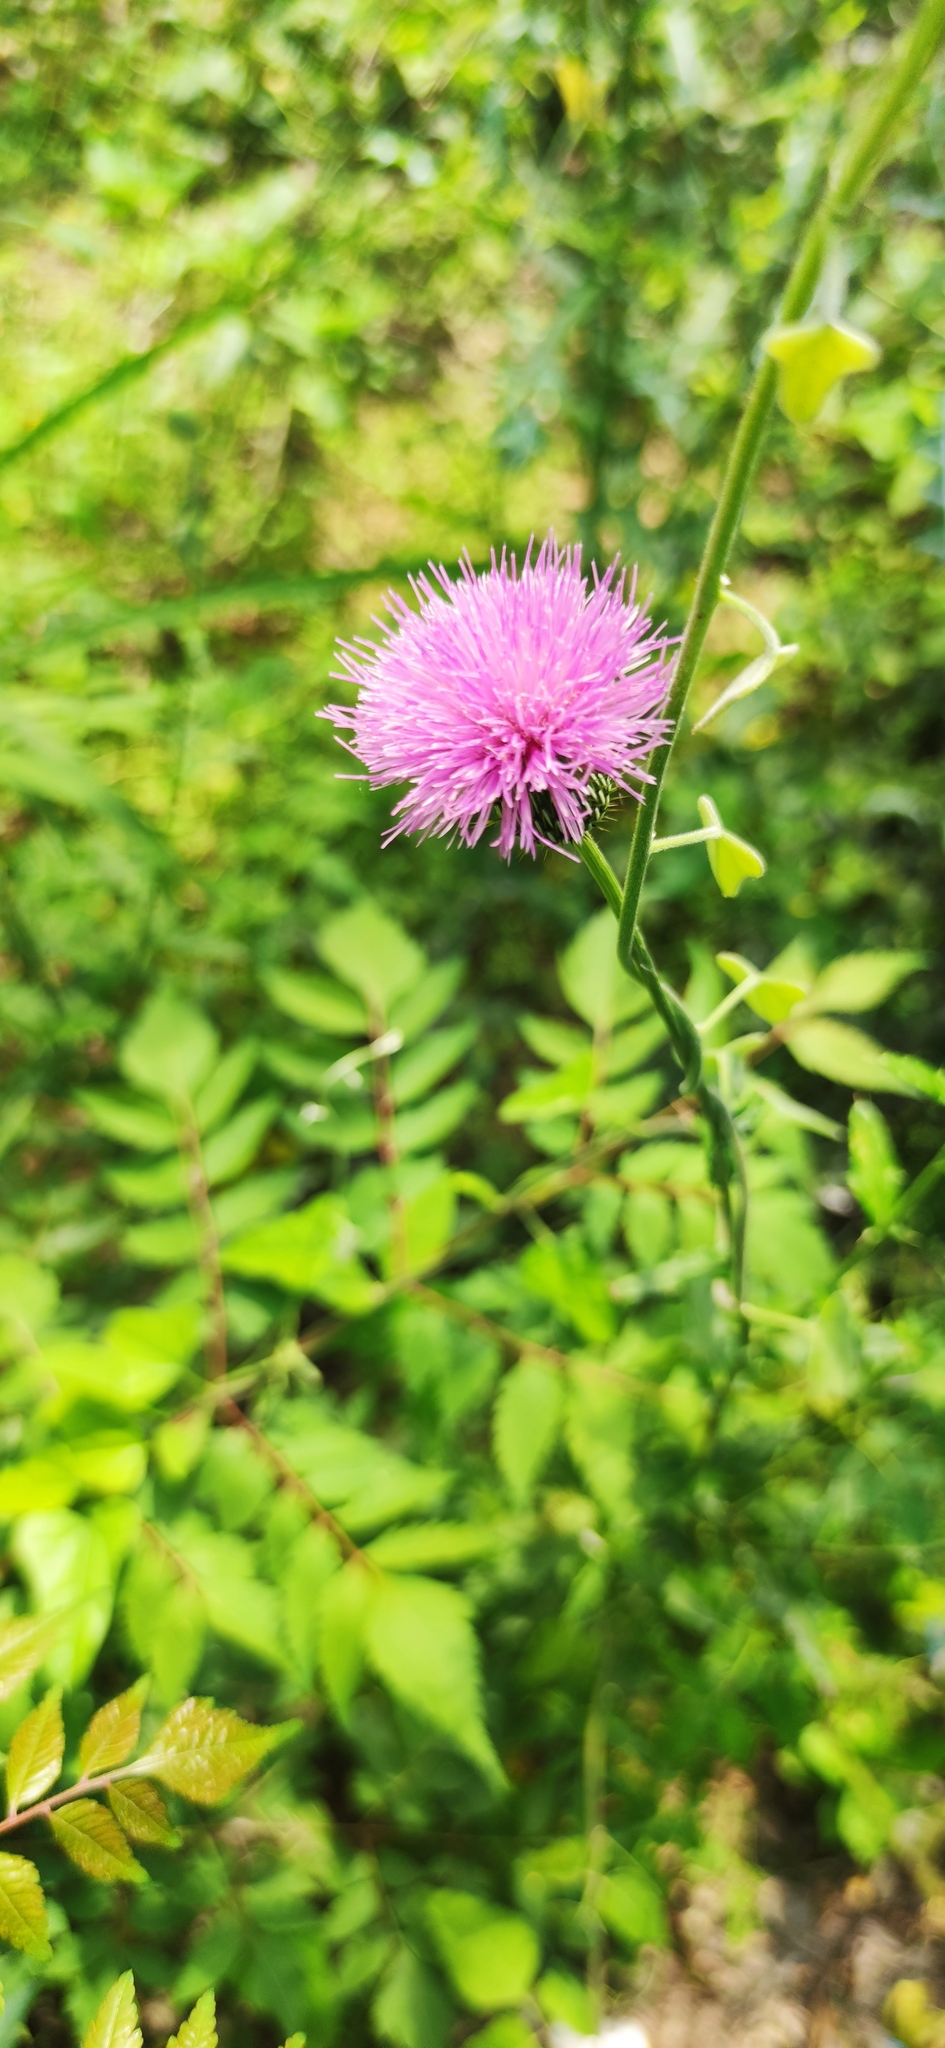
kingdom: Plantae
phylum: Tracheophyta
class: Magnoliopsida
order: Asterales
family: Asteraceae
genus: Cirsium
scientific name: Cirsium texanum
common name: Texas purple thistle
